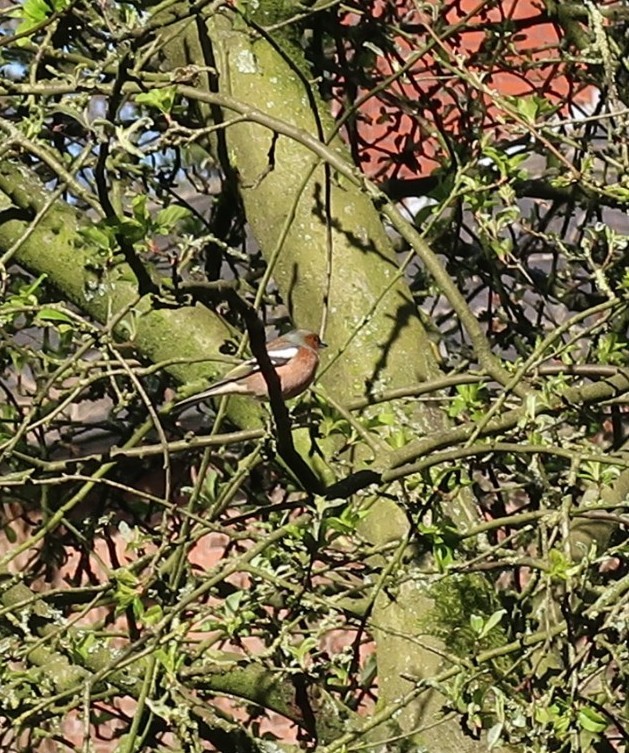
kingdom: Animalia
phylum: Chordata
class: Aves
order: Passeriformes
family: Fringillidae
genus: Fringilla
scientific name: Fringilla coelebs
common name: Common chaffinch
